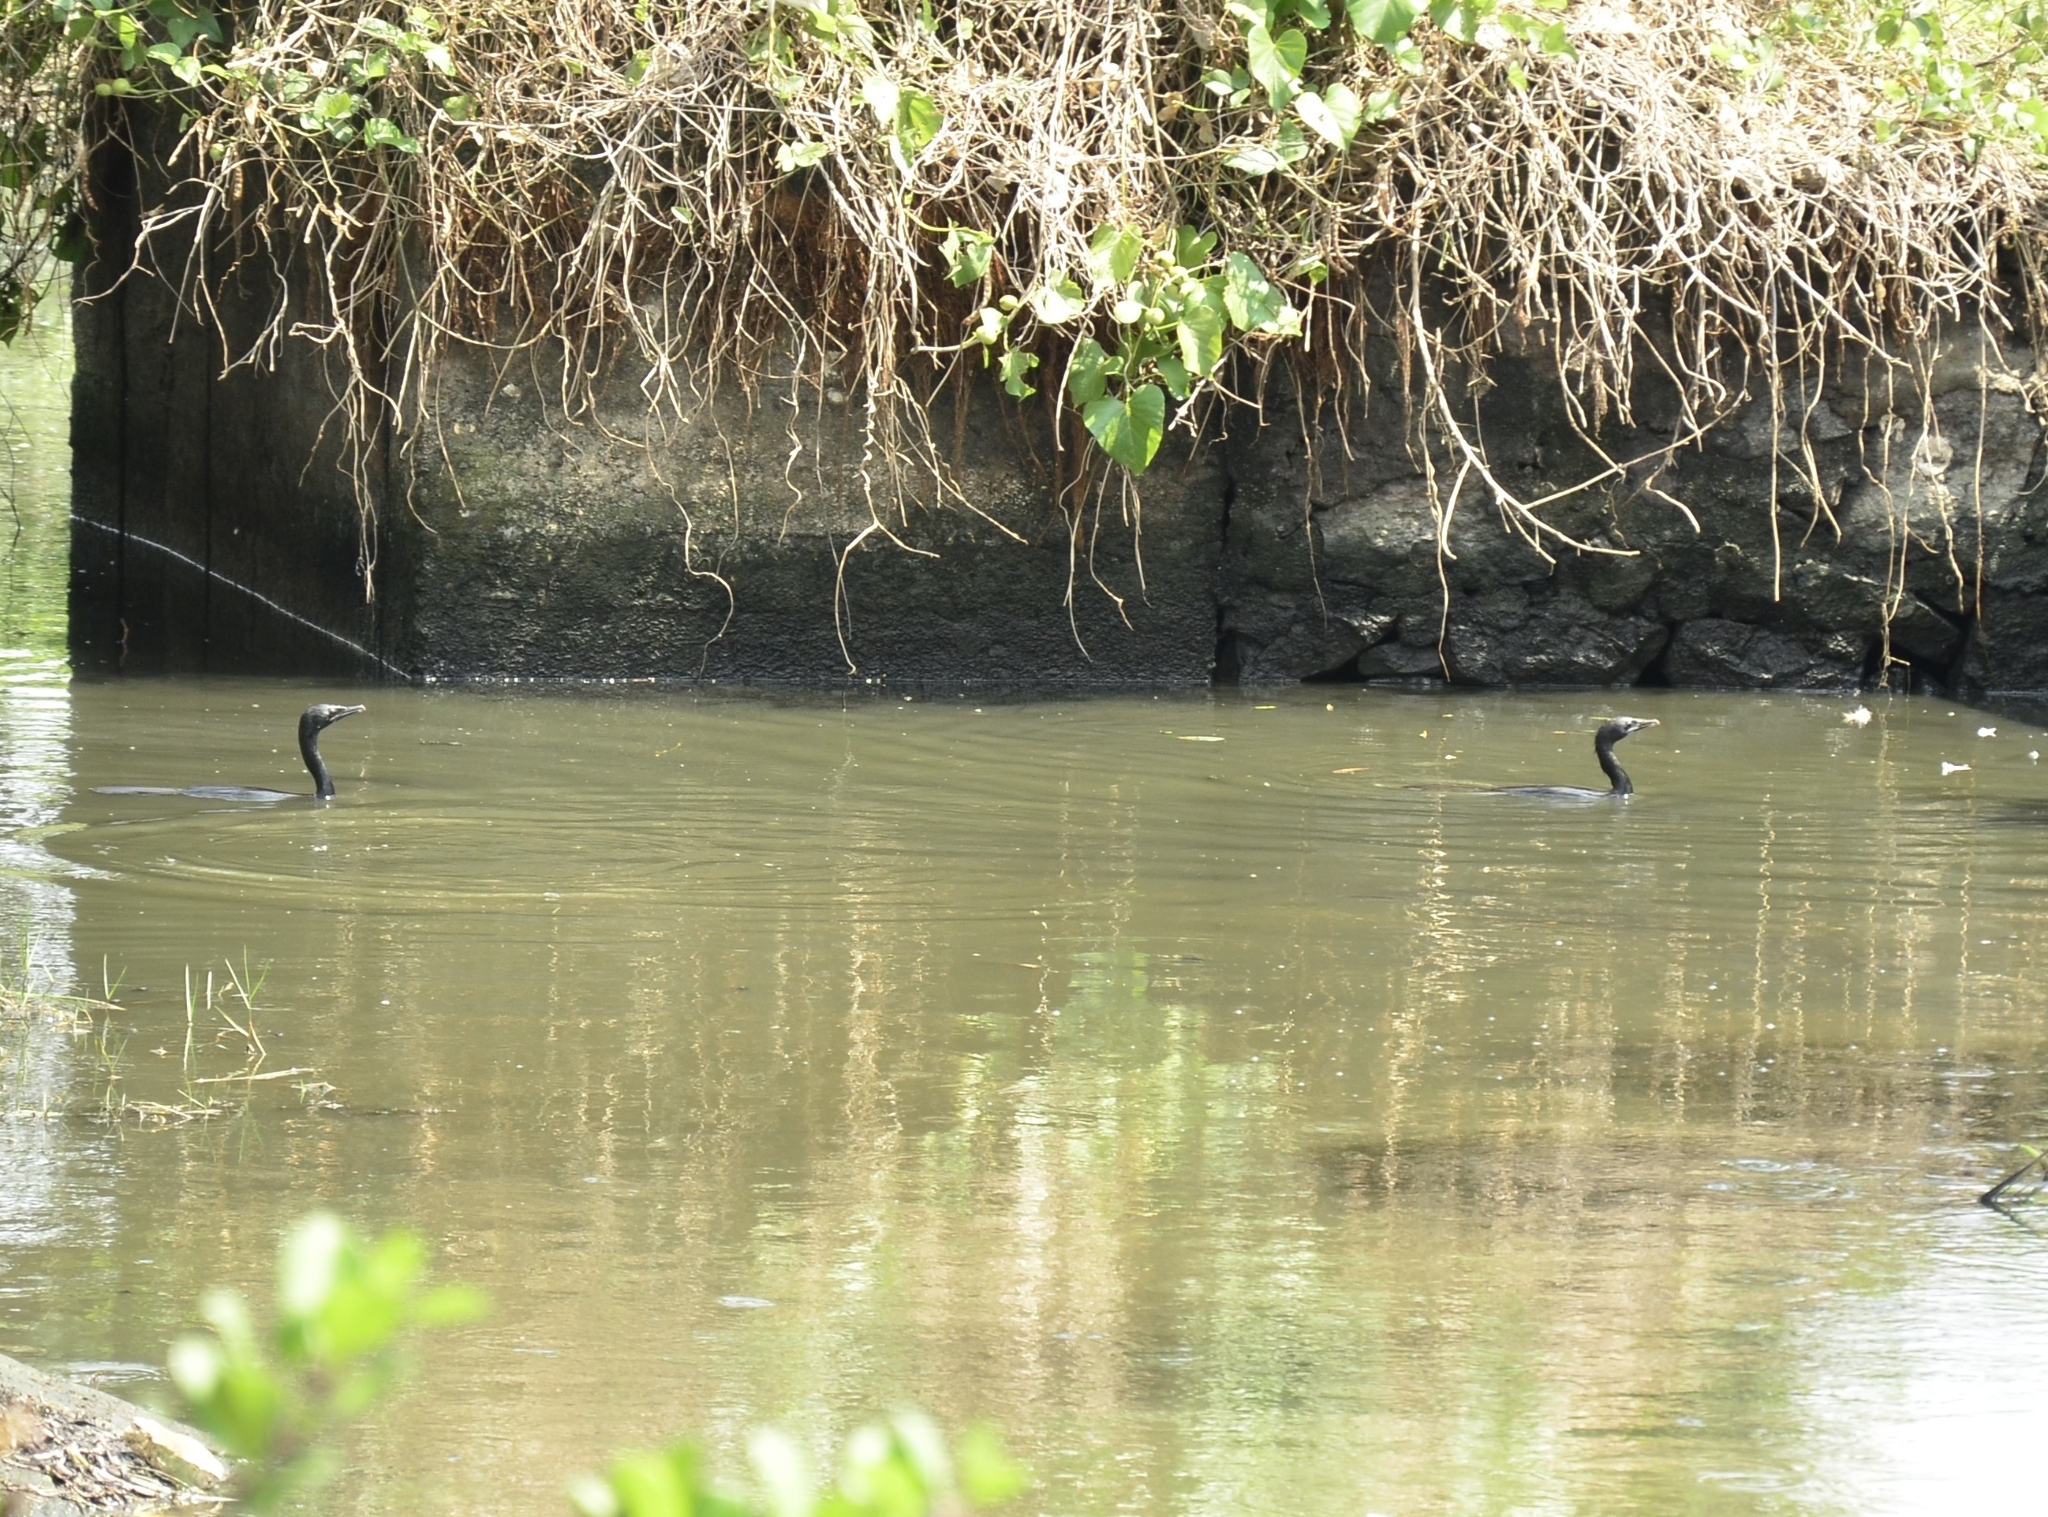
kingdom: Animalia
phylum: Chordata
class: Aves
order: Suliformes
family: Phalacrocoracidae
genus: Microcarbo
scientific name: Microcarbo niger
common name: Little cormorant
